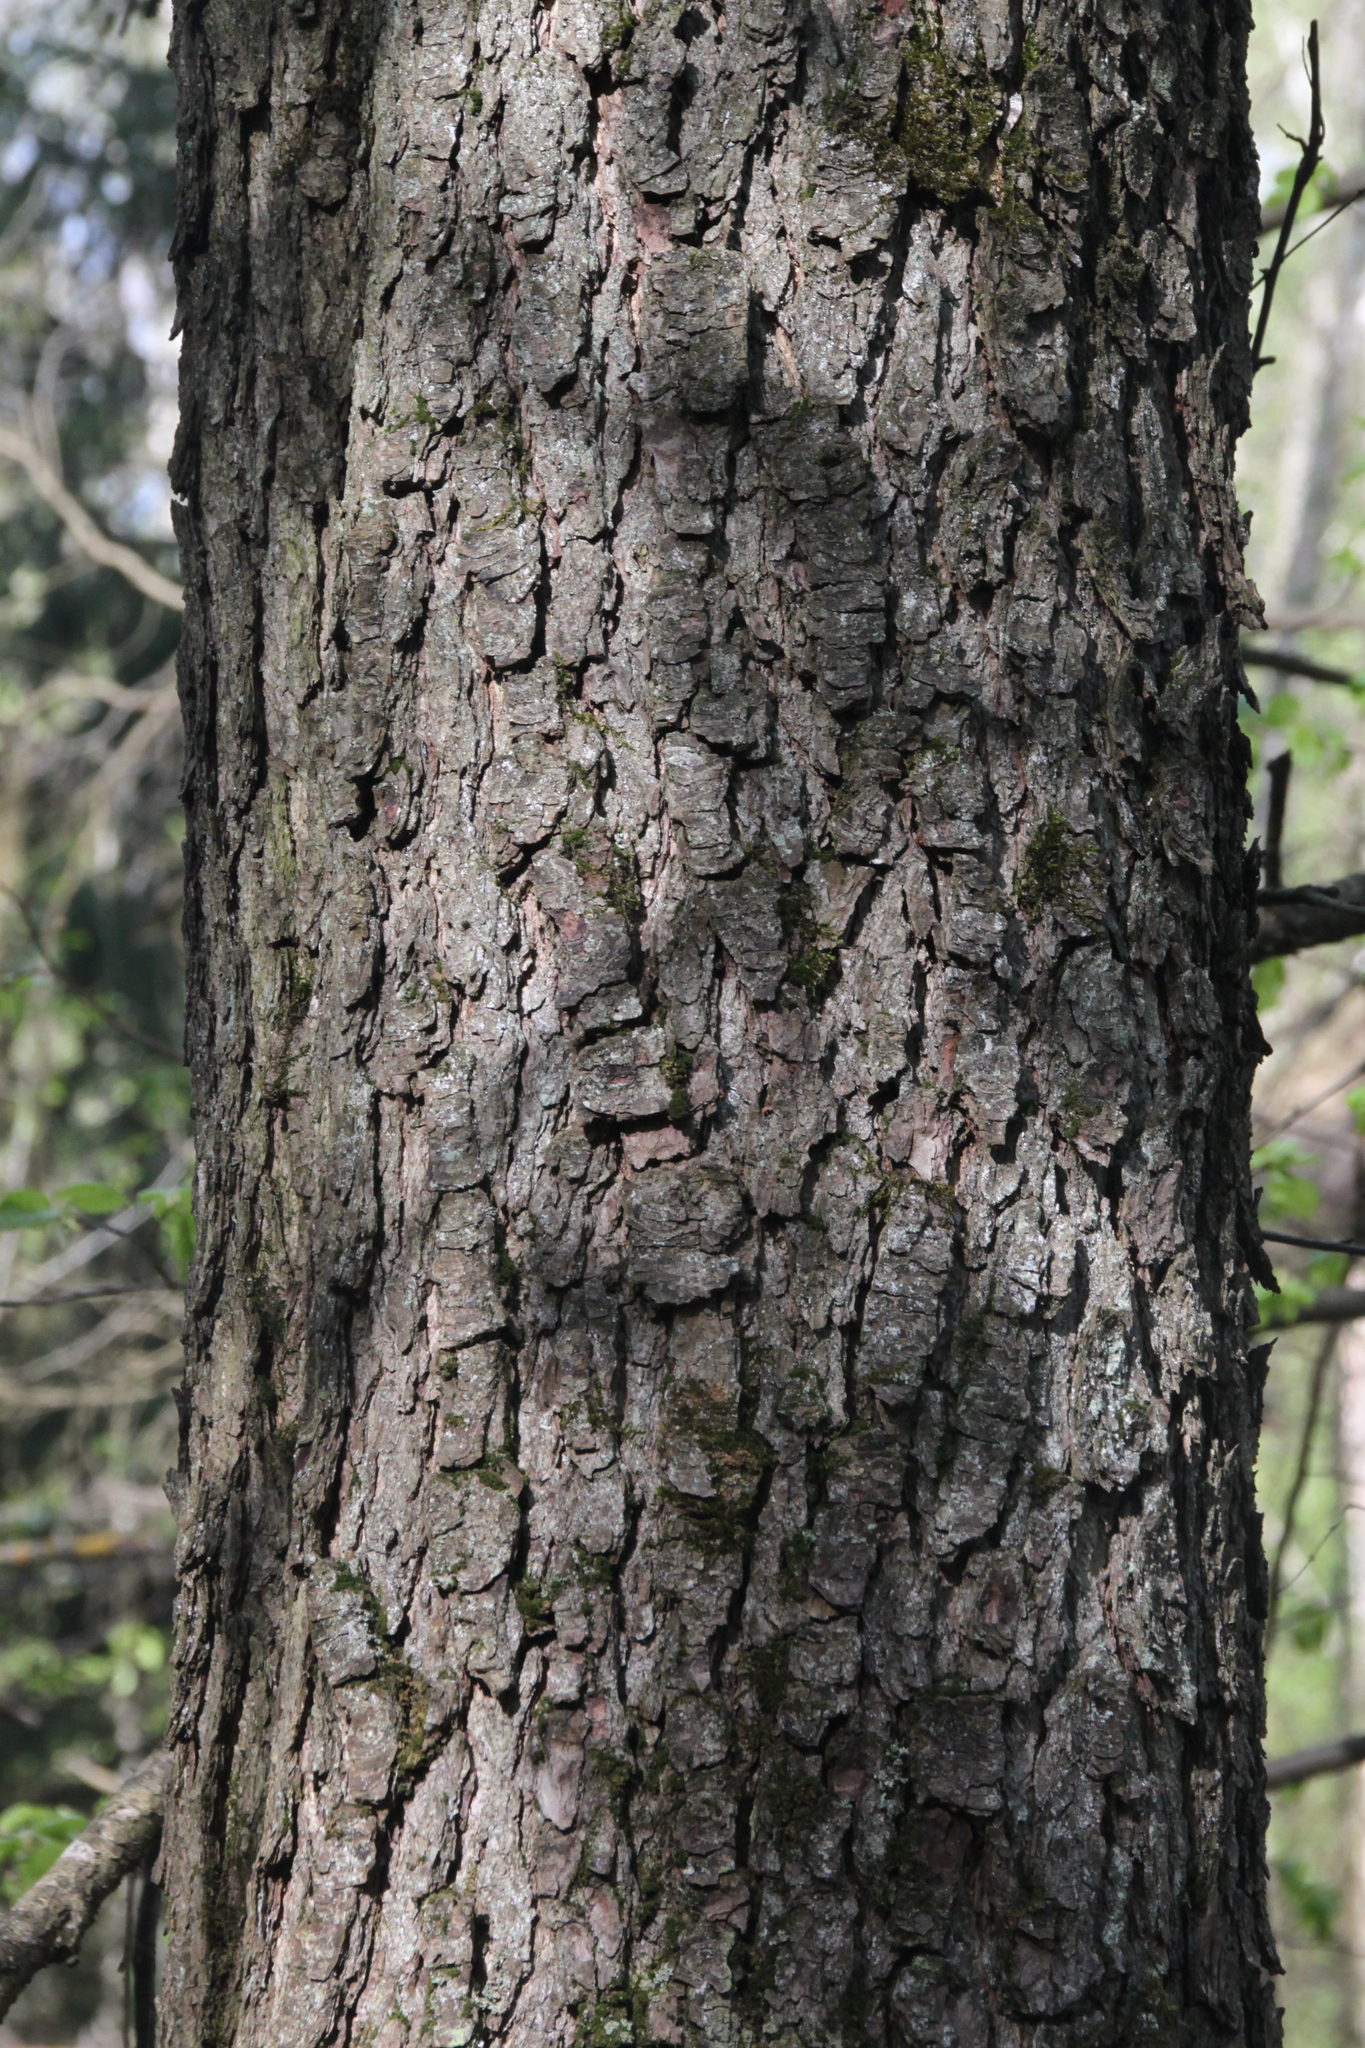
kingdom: Plantae
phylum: Tracheophyta
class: Magnoliopsida
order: Fagales
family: Betulaceae
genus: Alnus
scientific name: Alnus glutinosa
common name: Black alder
